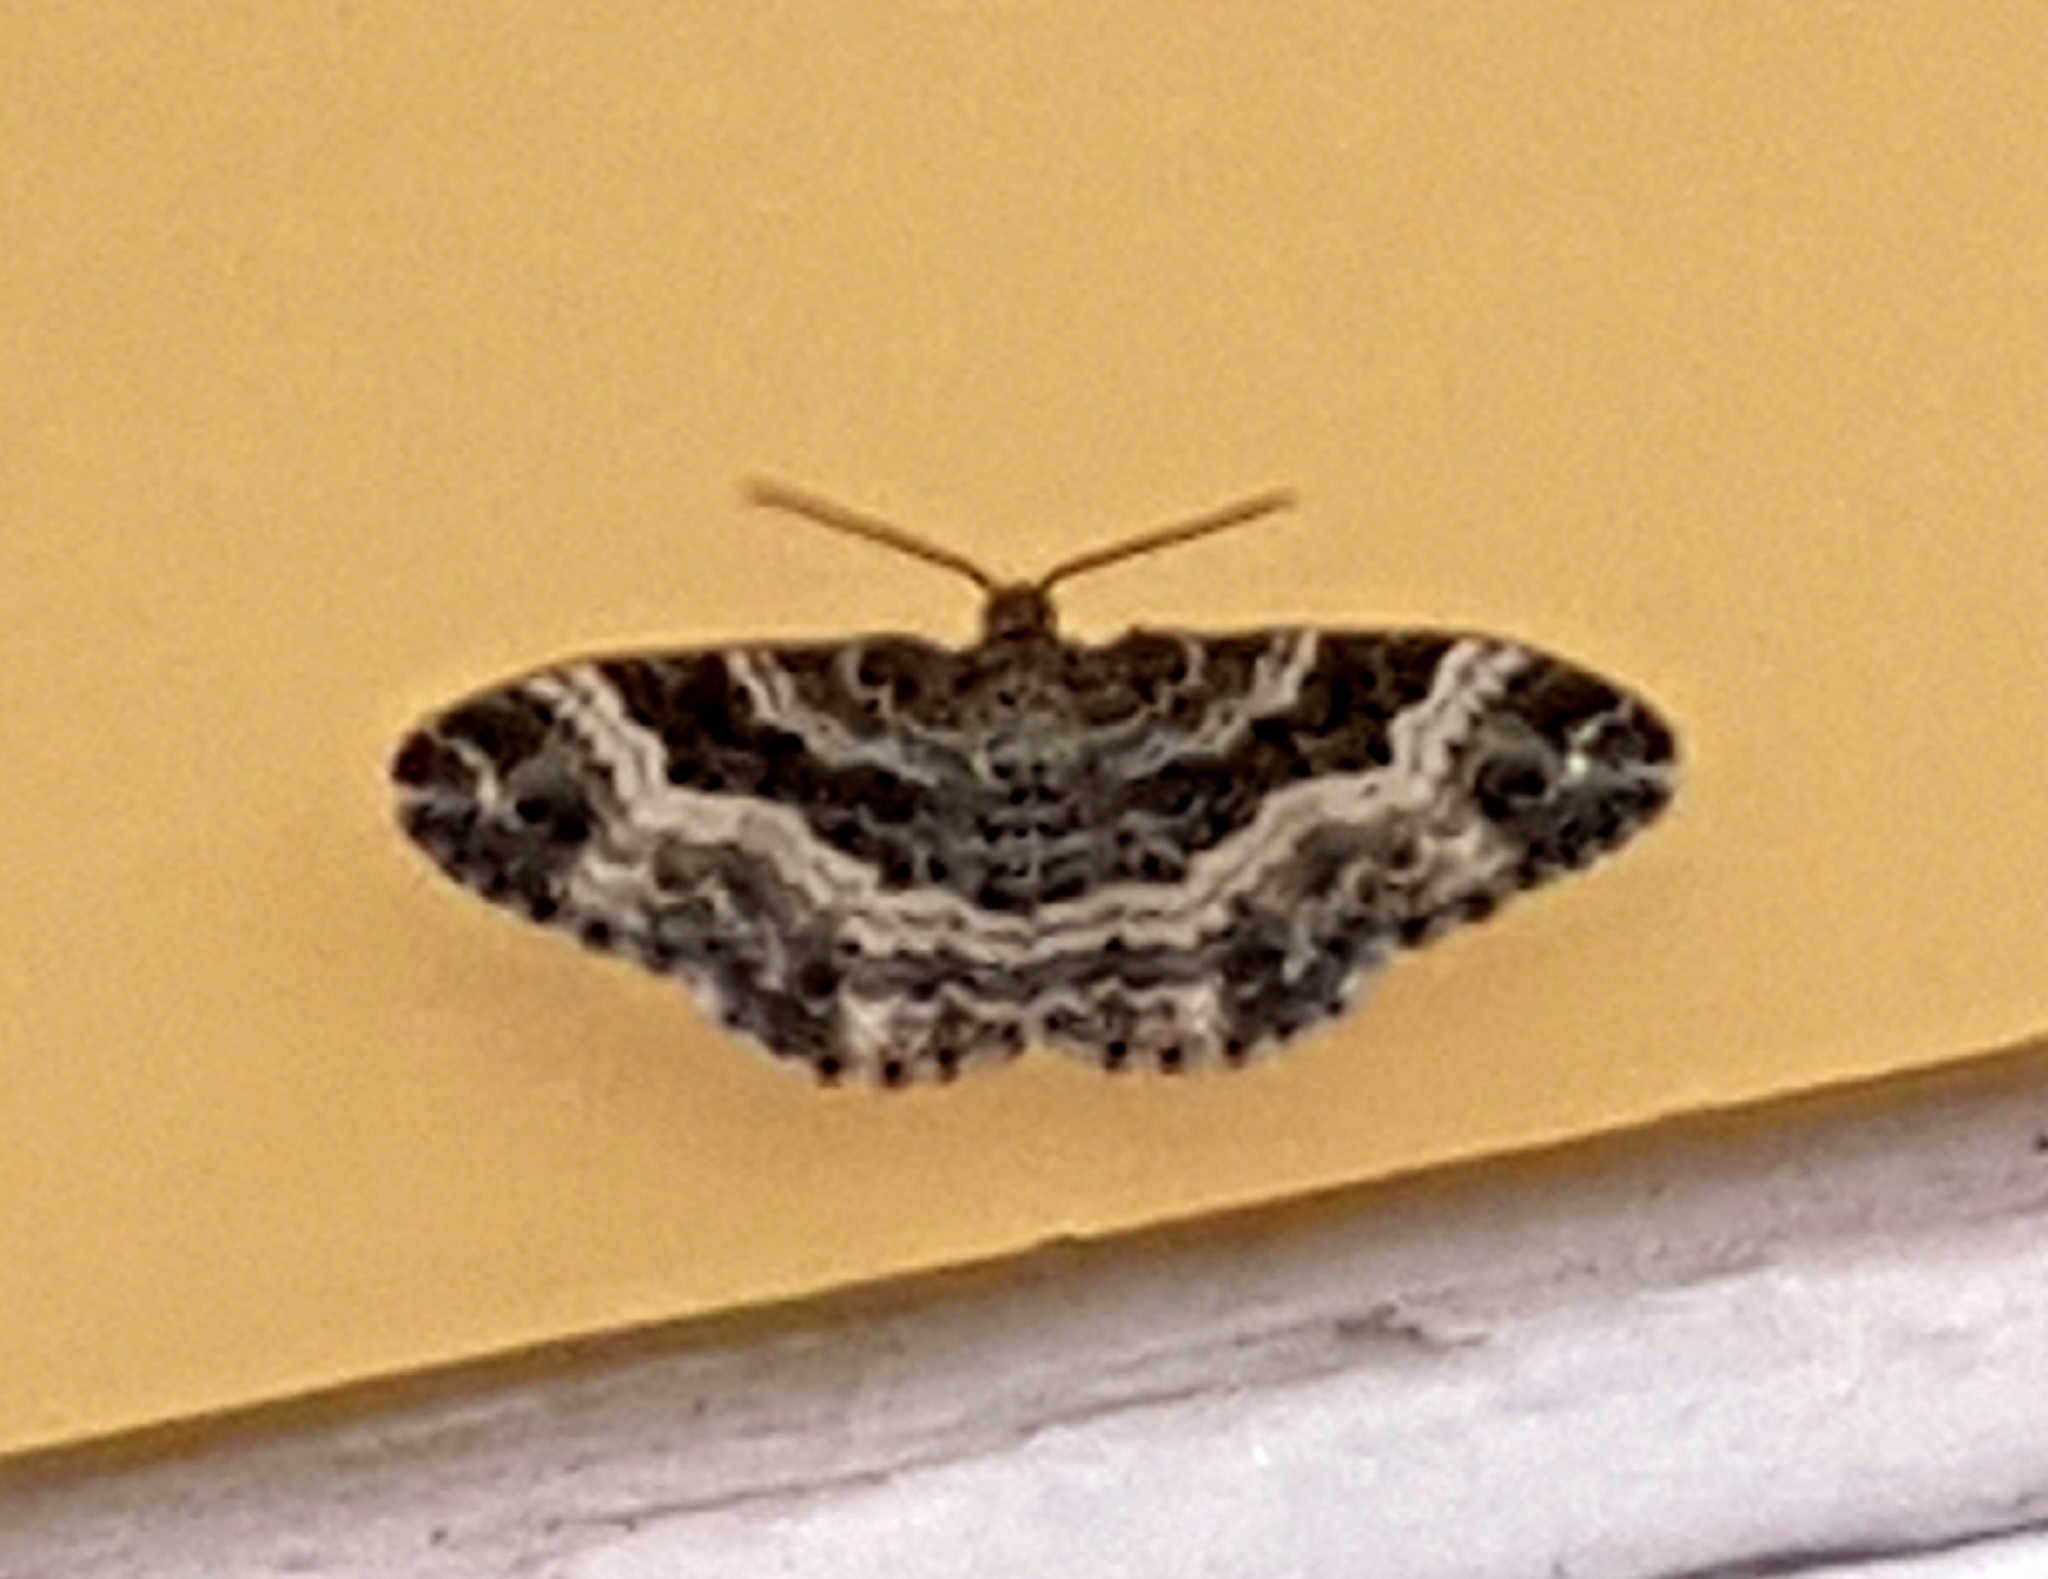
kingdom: Animalia
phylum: Arthropoda
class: Insecta
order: Lepidoptera
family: Geometridae
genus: Epirrhoe
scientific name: Epirrhoe alternata
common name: Common carpet
